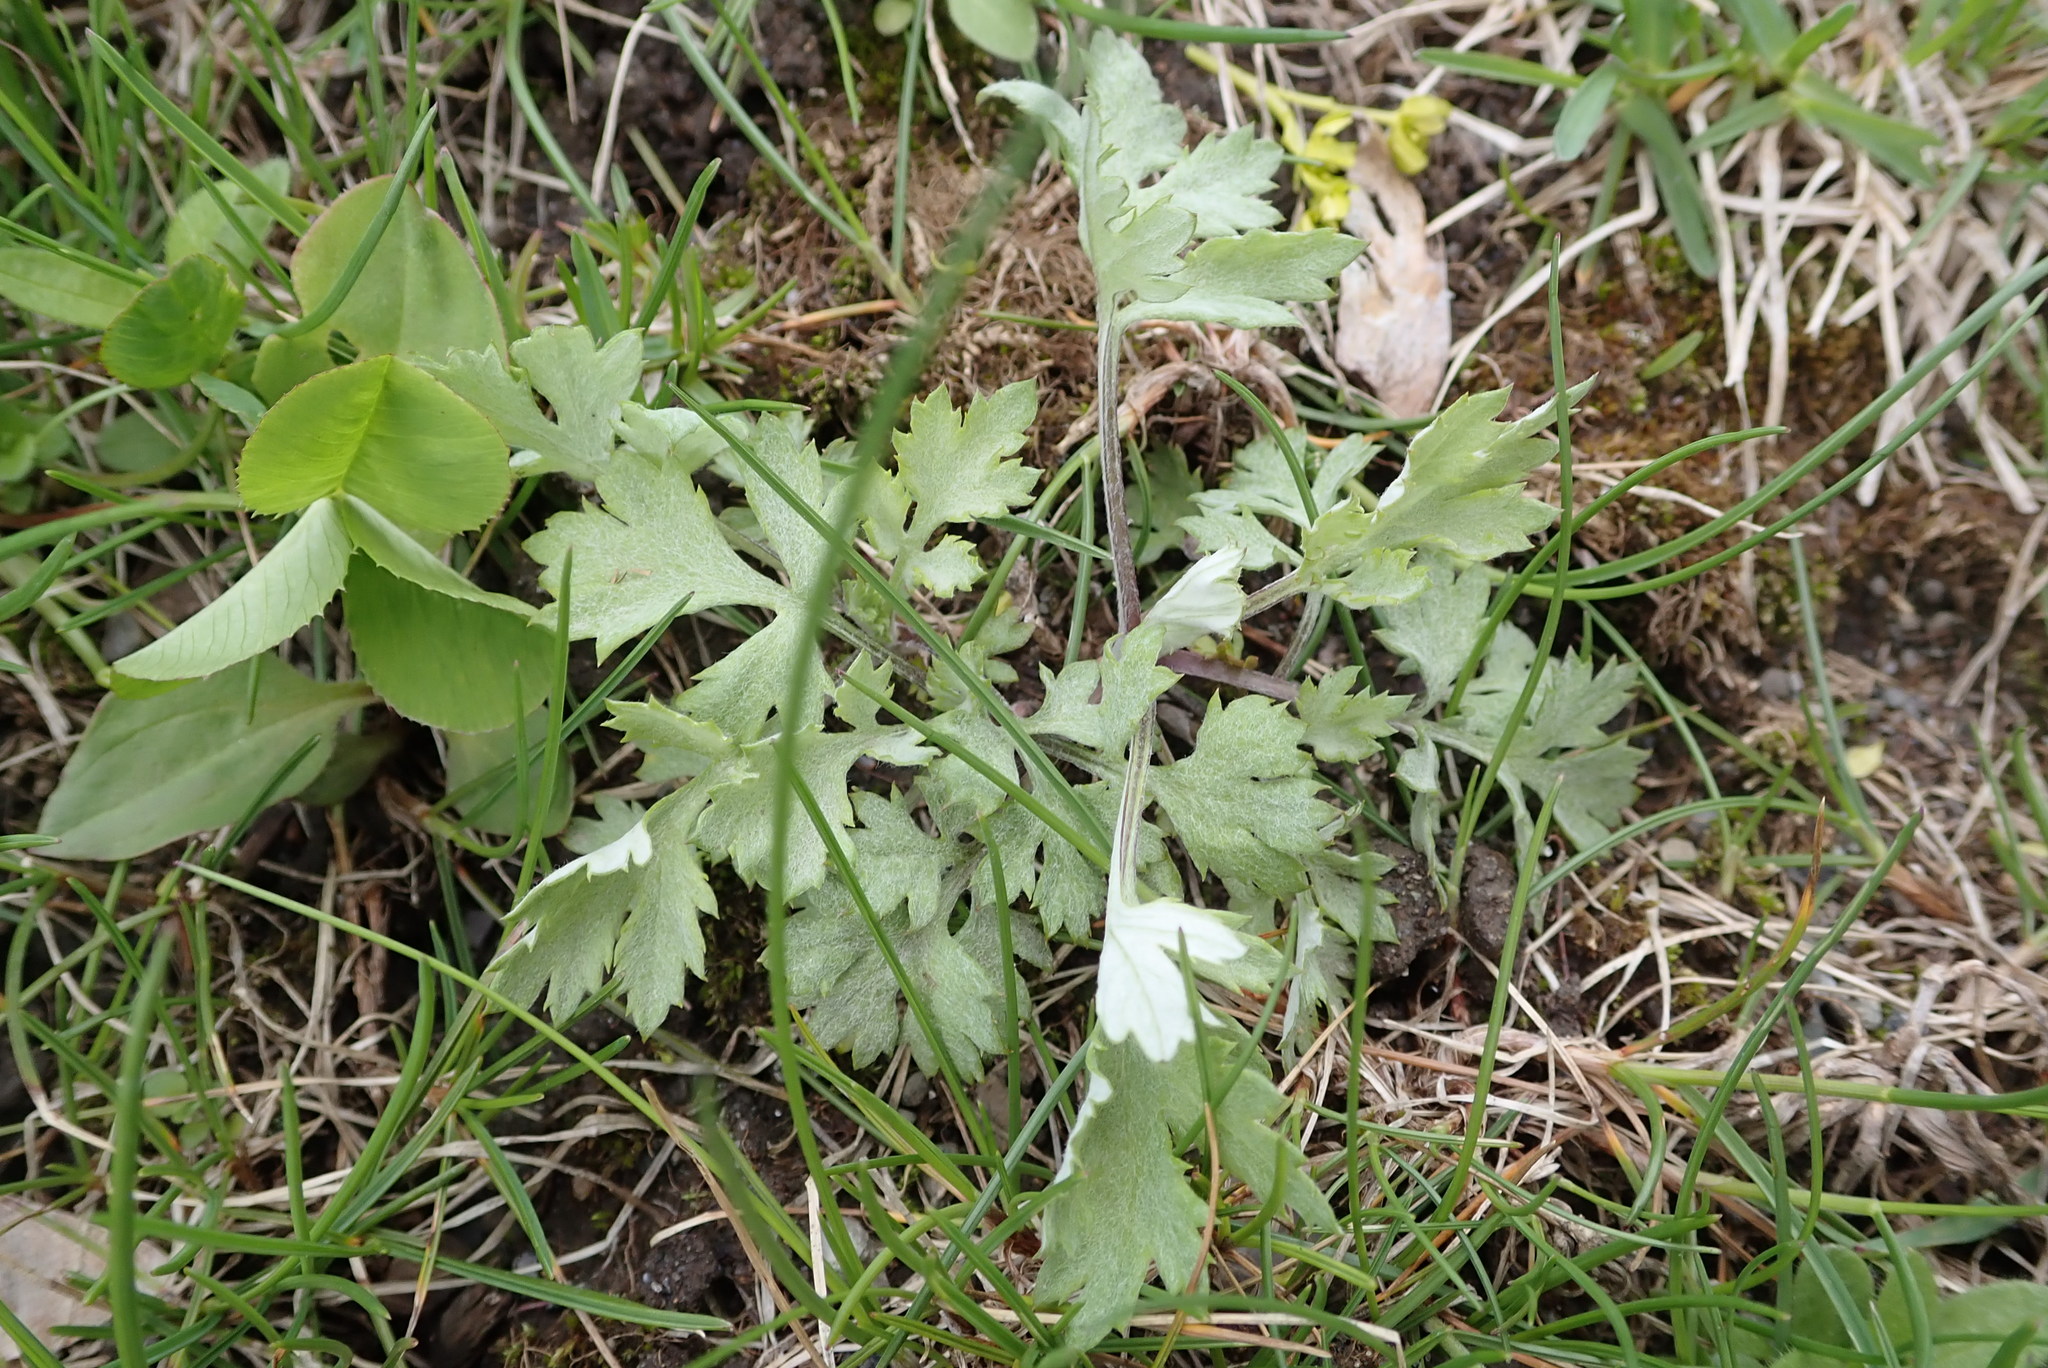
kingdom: Plantae
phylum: Tracheophyta
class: Magnoliopsida
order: Asterales
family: Asteraceae
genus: Artemisia
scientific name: Artemisia vulgaris
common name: Mugwort
